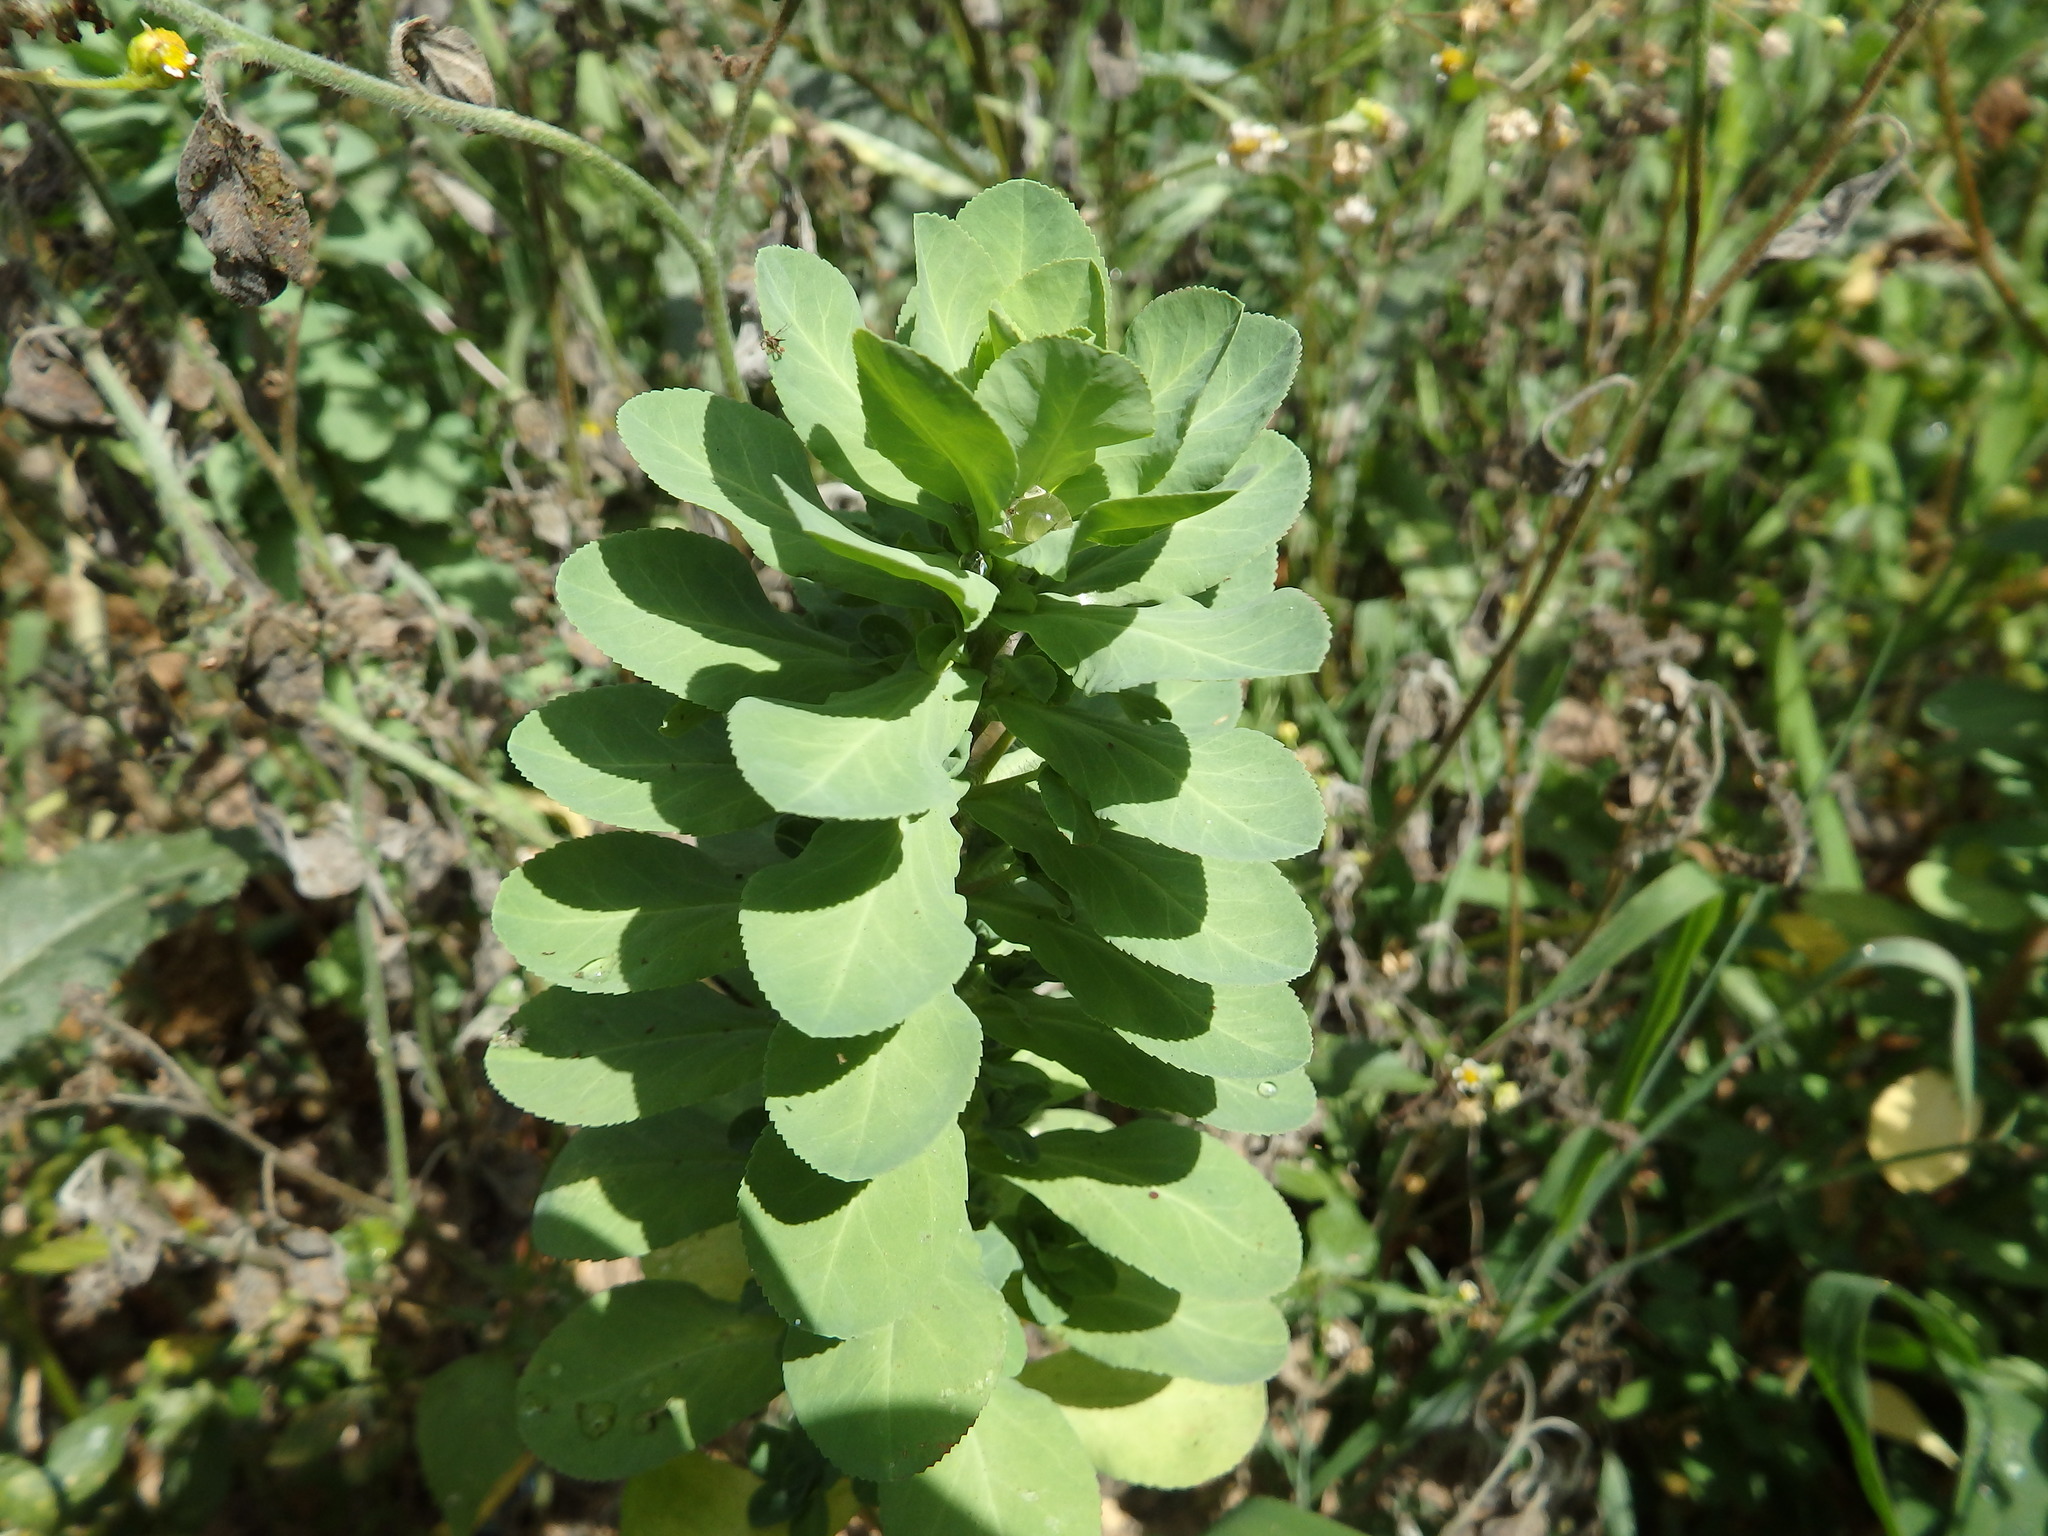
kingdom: Plantae
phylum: Tracheophyta
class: Magnoliopsida
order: Malpighiales
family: Euphorbiaceae
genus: Euphorbia
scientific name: Euphorbia helioscopia
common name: Sun spurge
